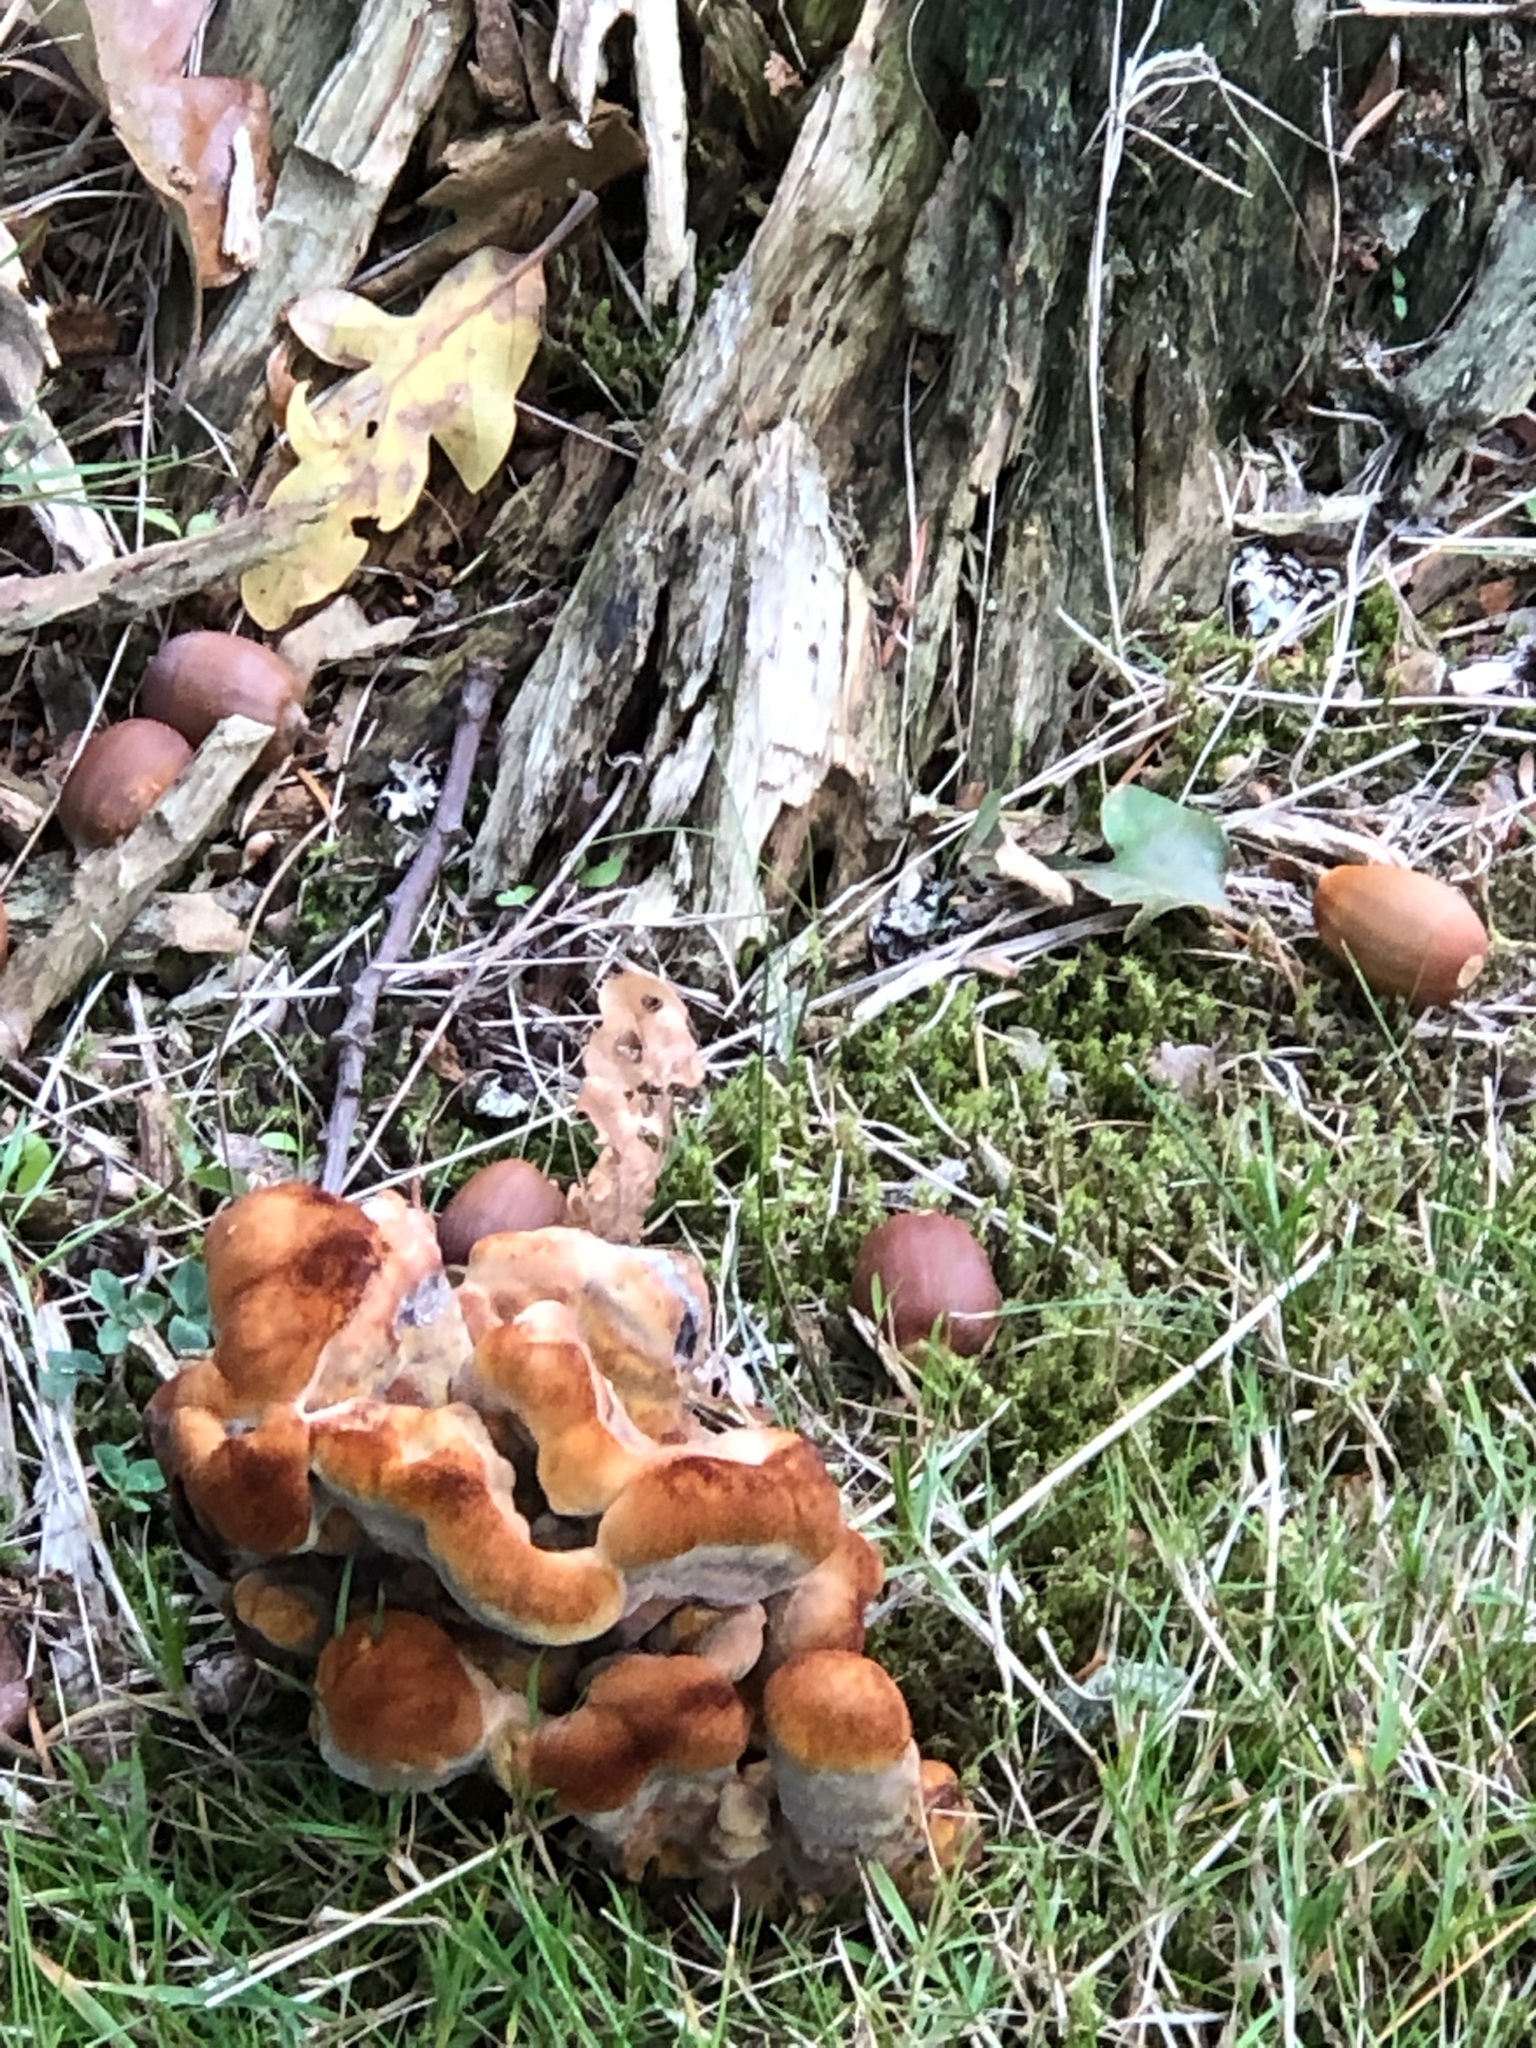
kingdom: Fungi
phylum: Basidiomycota
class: Agaricomycetes
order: Polyporales
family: Laetiporaceae
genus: Phaeolus
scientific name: Phaeolus schweinitzii
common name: Dyer's mazegill
